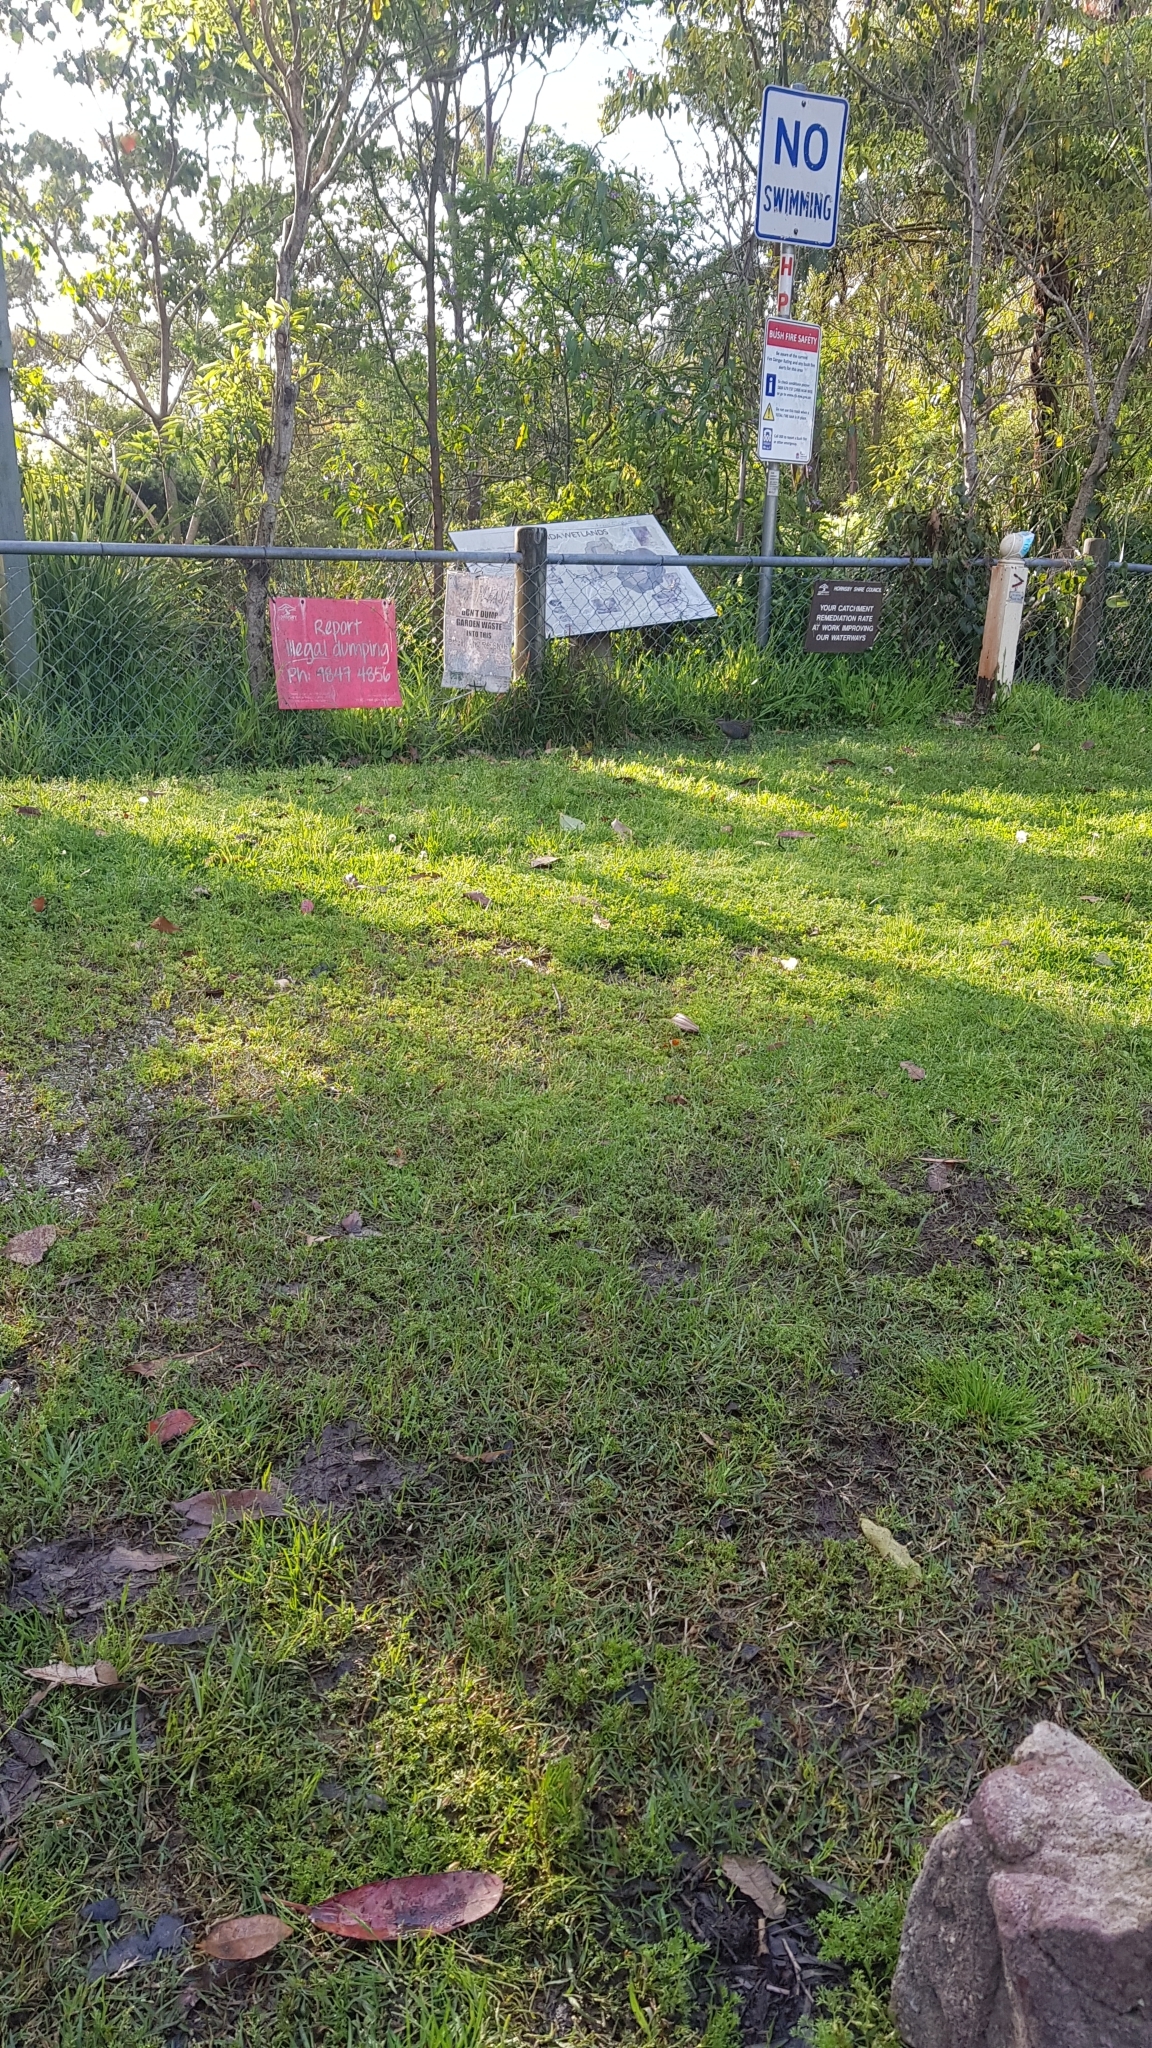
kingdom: Animalia
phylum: Chordata
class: Aves
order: Gruiformes
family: Rallidae
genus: Gallirallus
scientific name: Gallirallus philippensis
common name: Buff-banded rail
